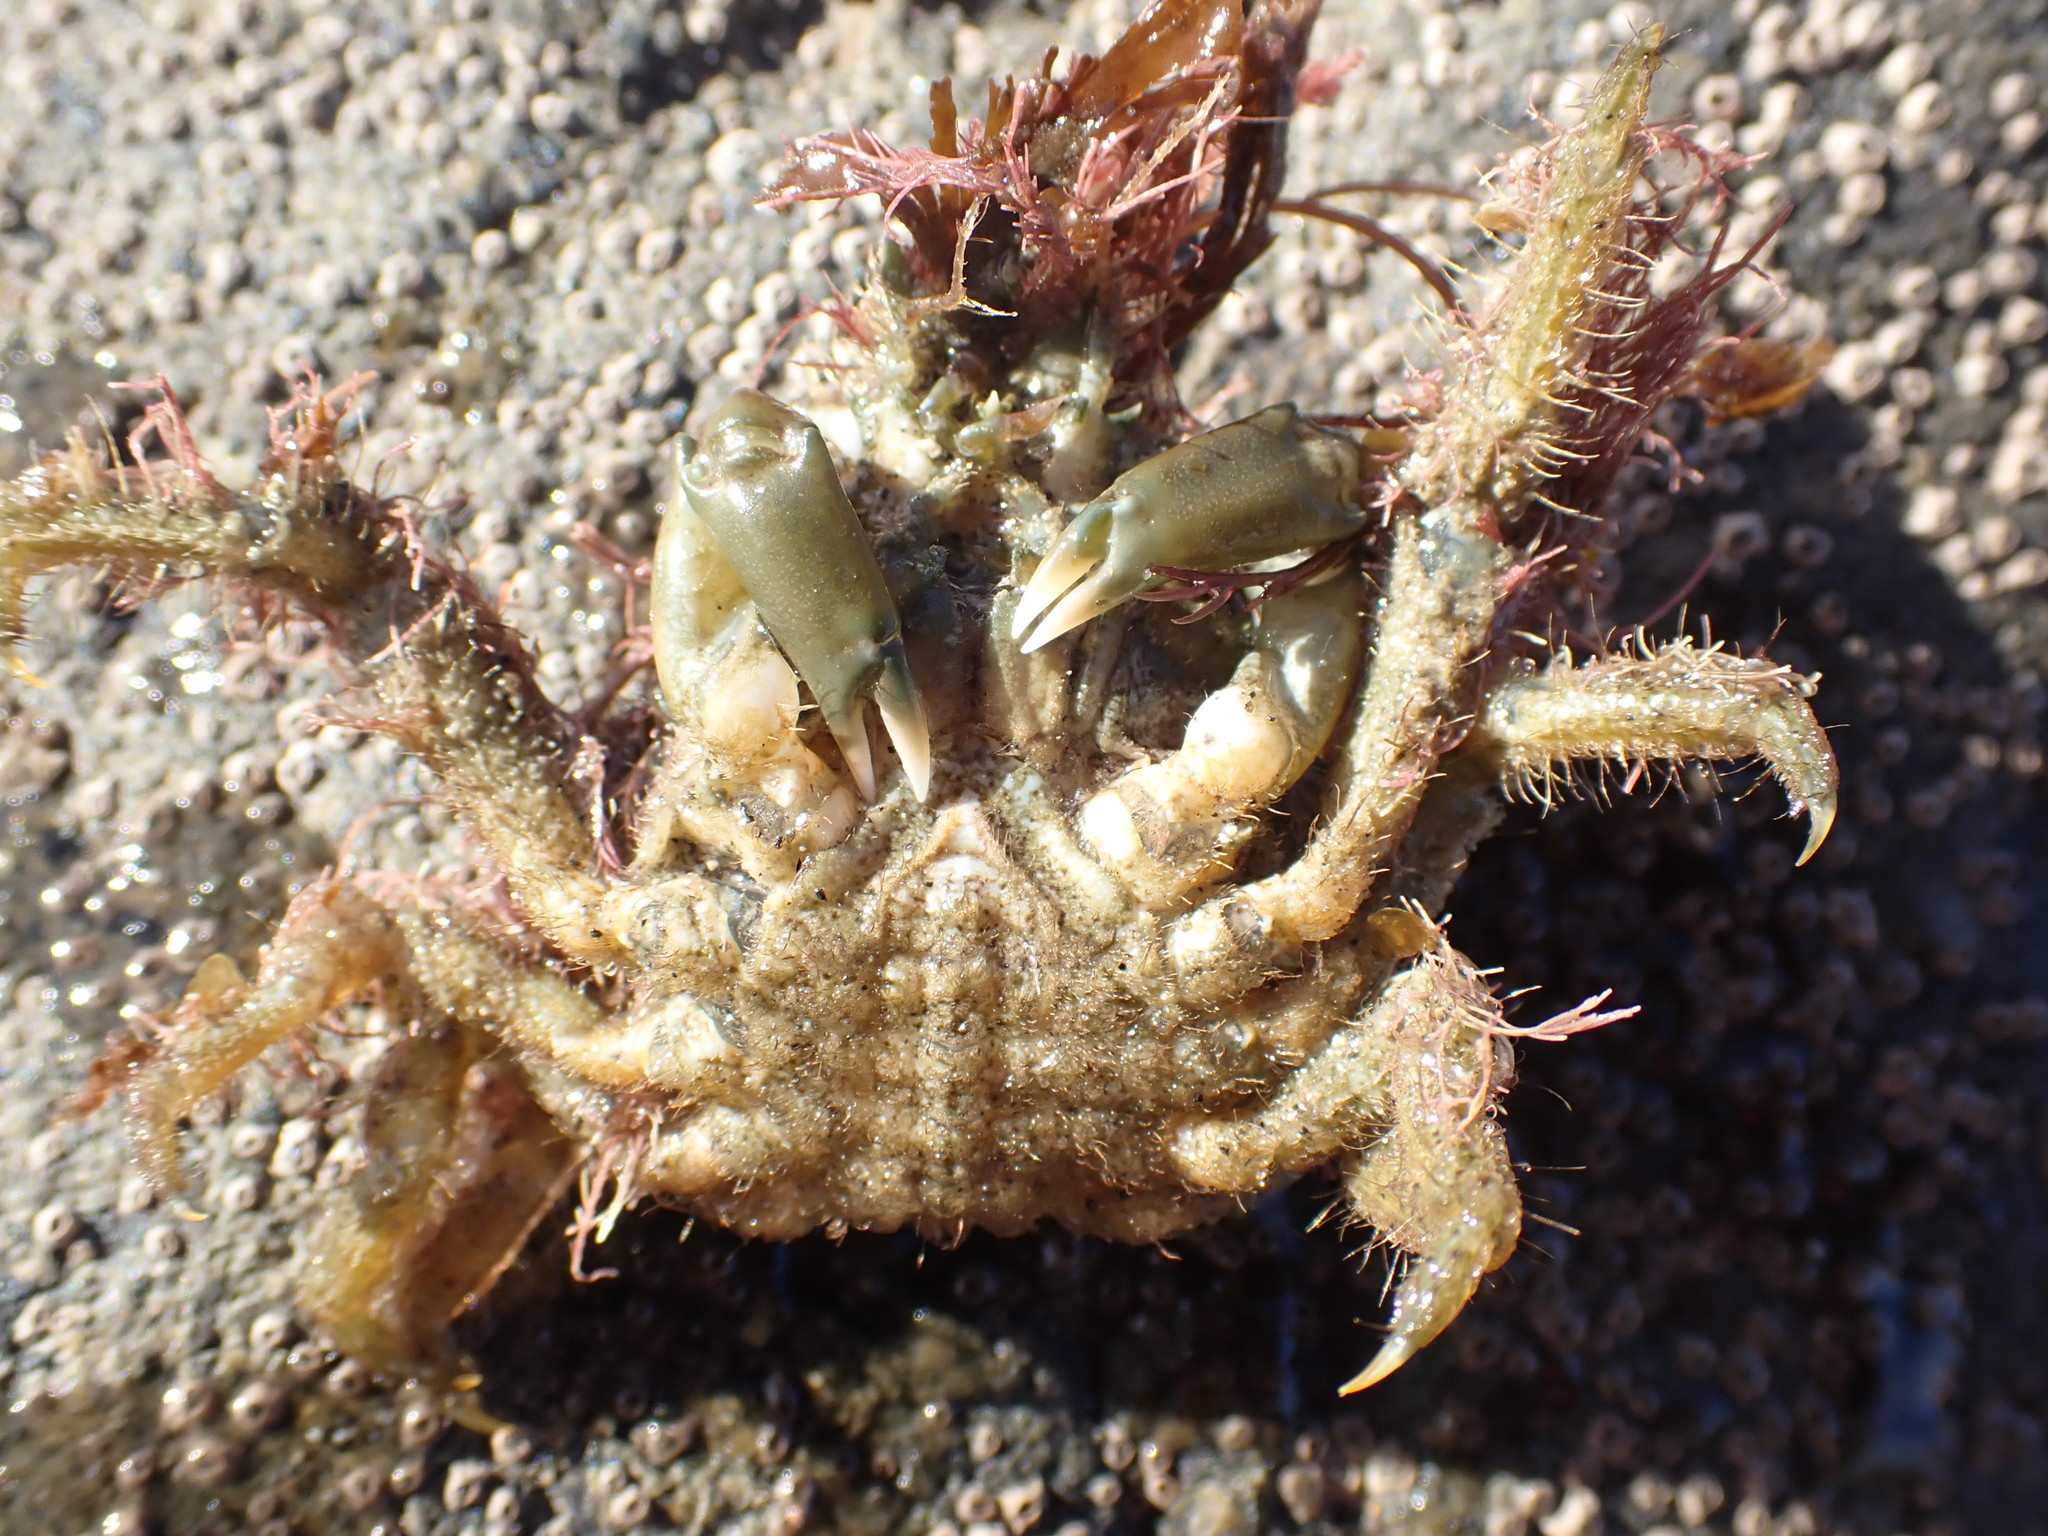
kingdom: Animalia
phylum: Arthropoda
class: Malacostraca
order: Decapoda
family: Majidae
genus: Notomithrax
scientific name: Notomithrax peronii
